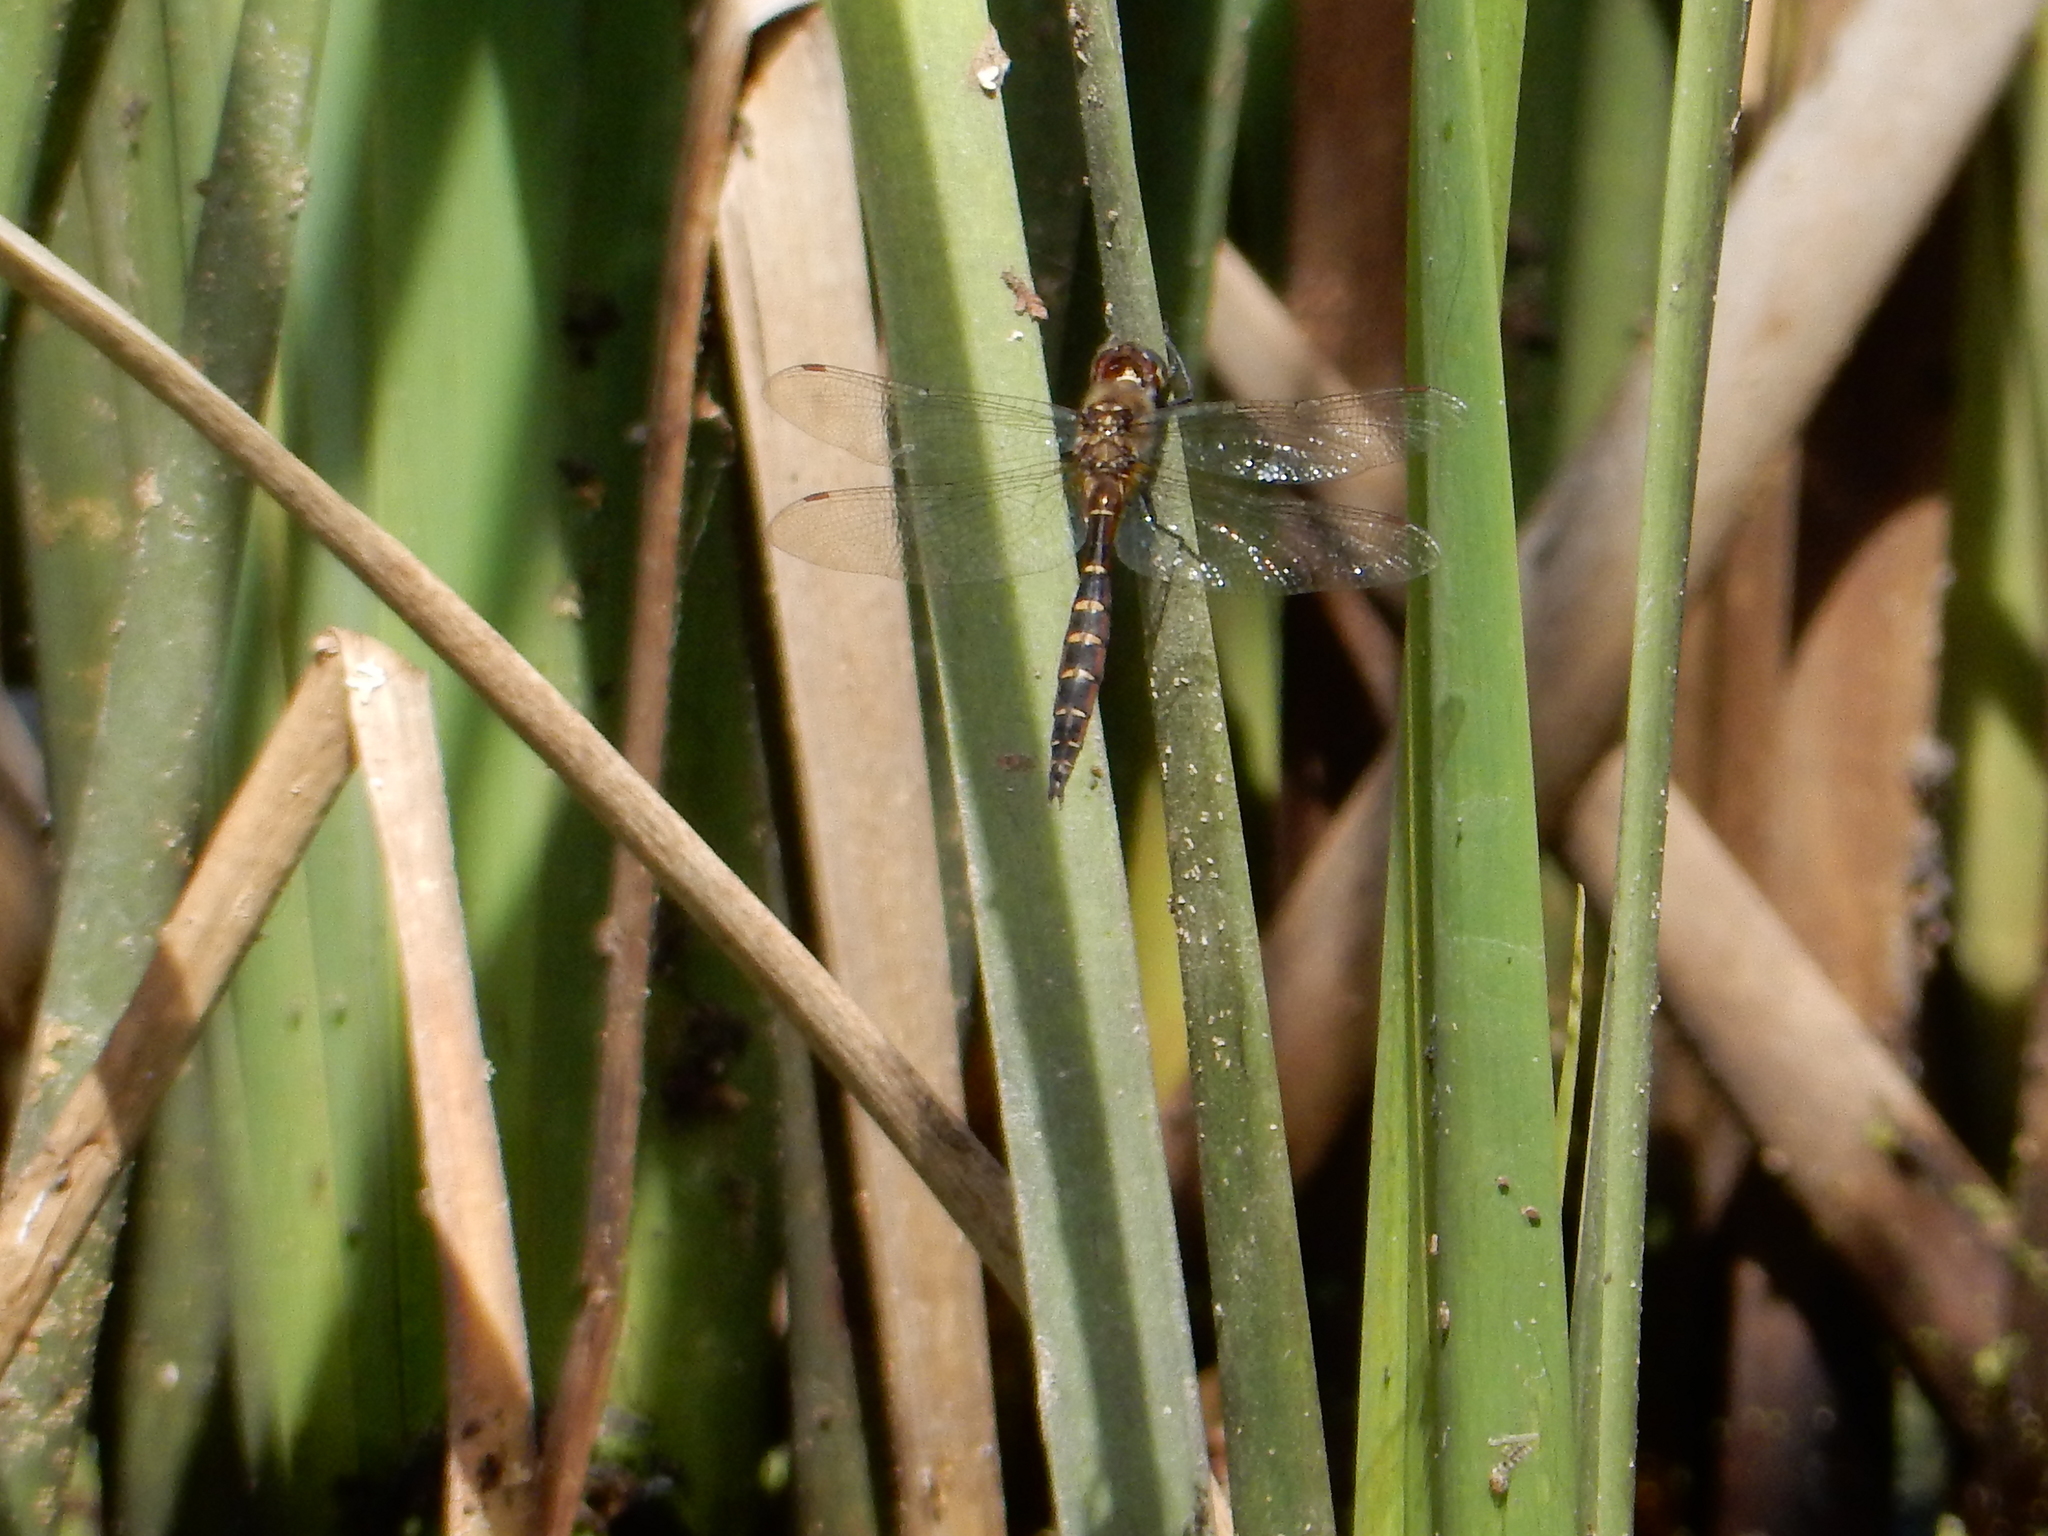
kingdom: Animalia
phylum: Arthropoda
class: Insecta
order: Odonata
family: Corduliidae
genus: Procordulia
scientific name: Procordulia smithii
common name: Ranger dragonfly
